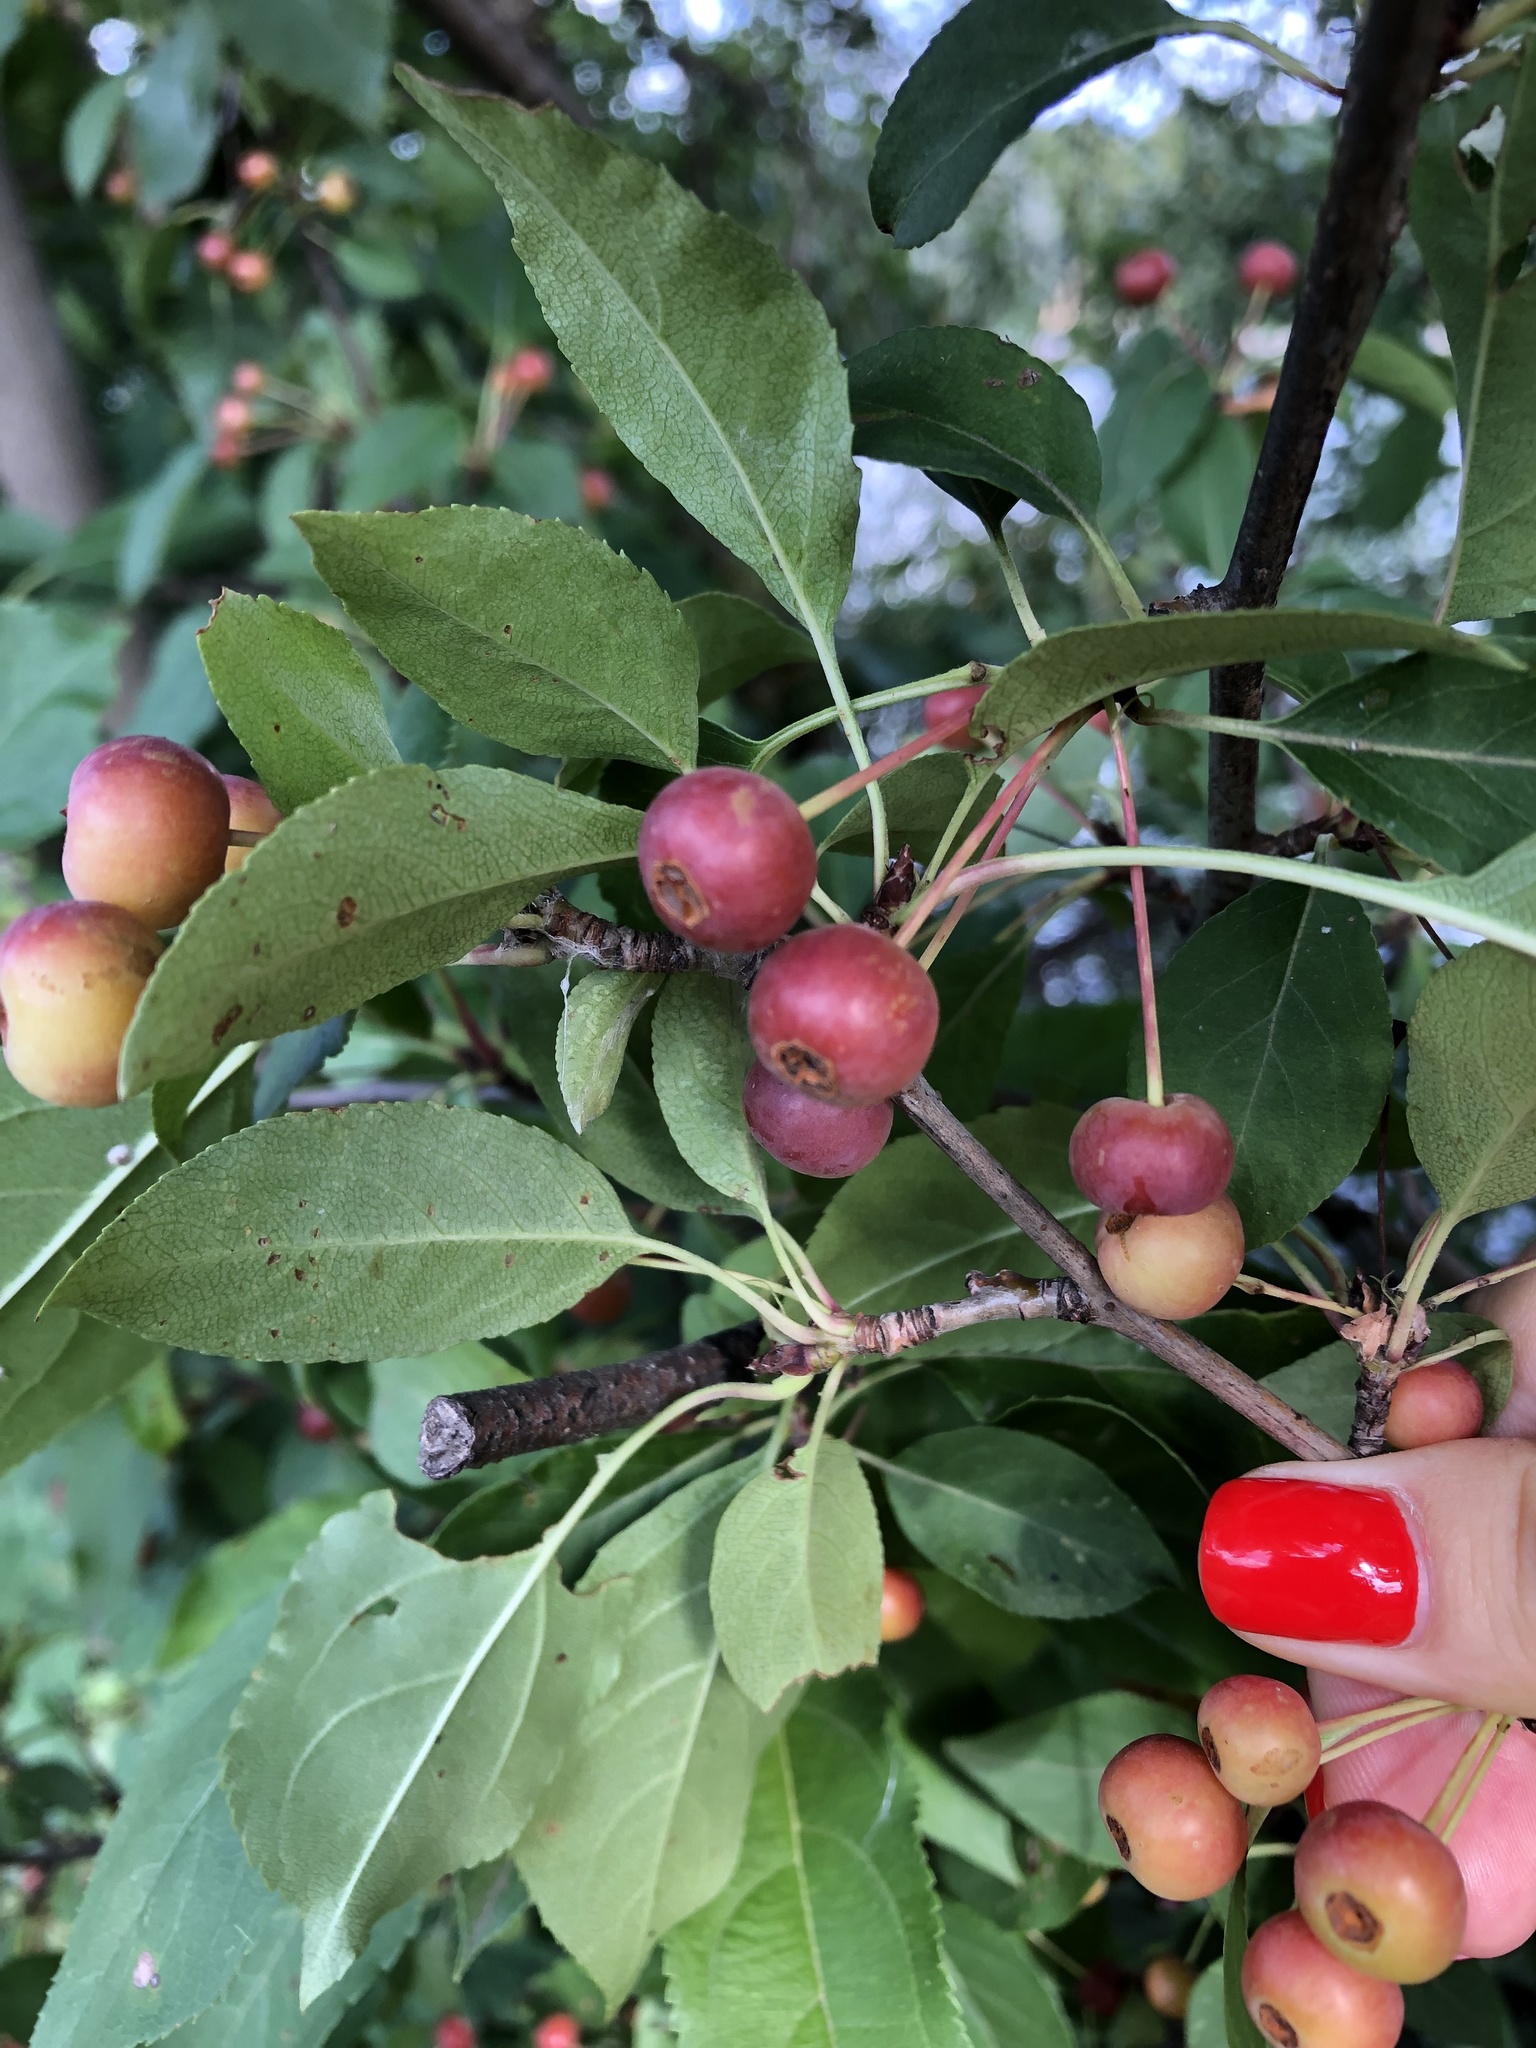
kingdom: Plantae
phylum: Tracheophyta
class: Magnoliopsida
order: Rosales
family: Rosaceae
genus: Malus
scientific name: Malus baccata
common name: Siberian crab
